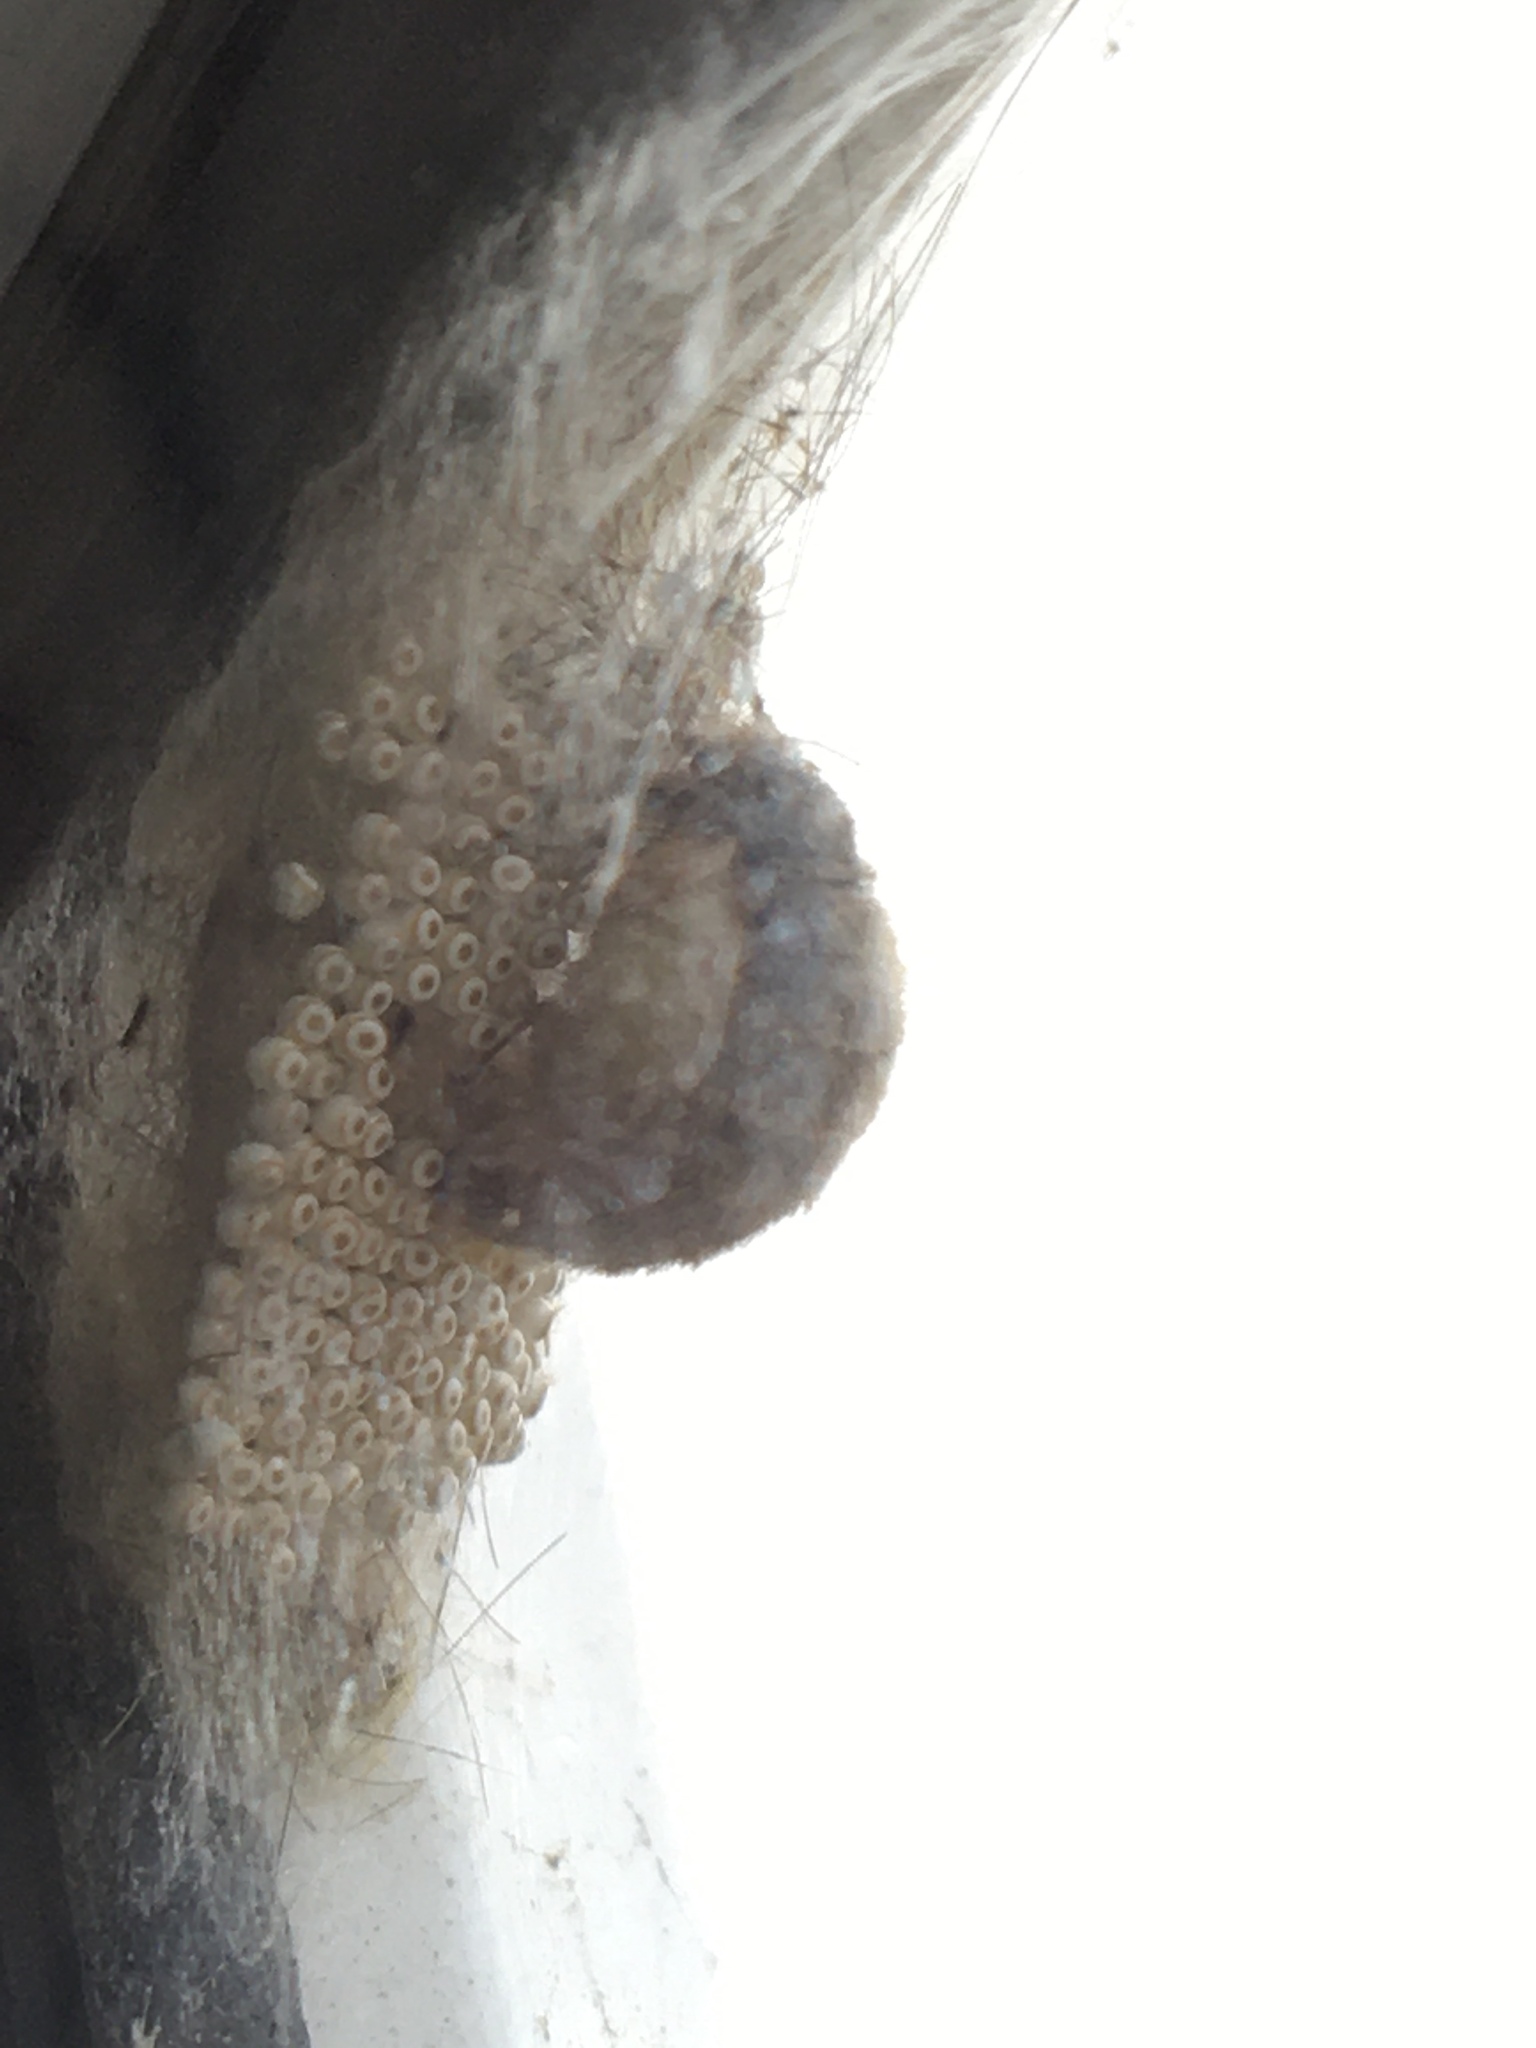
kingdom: Animalia
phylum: Arthropoda
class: Insecta
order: Lepidoptera
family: Erebidae
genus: Orgyia
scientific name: Orgyia antiqua
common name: Vapourer
